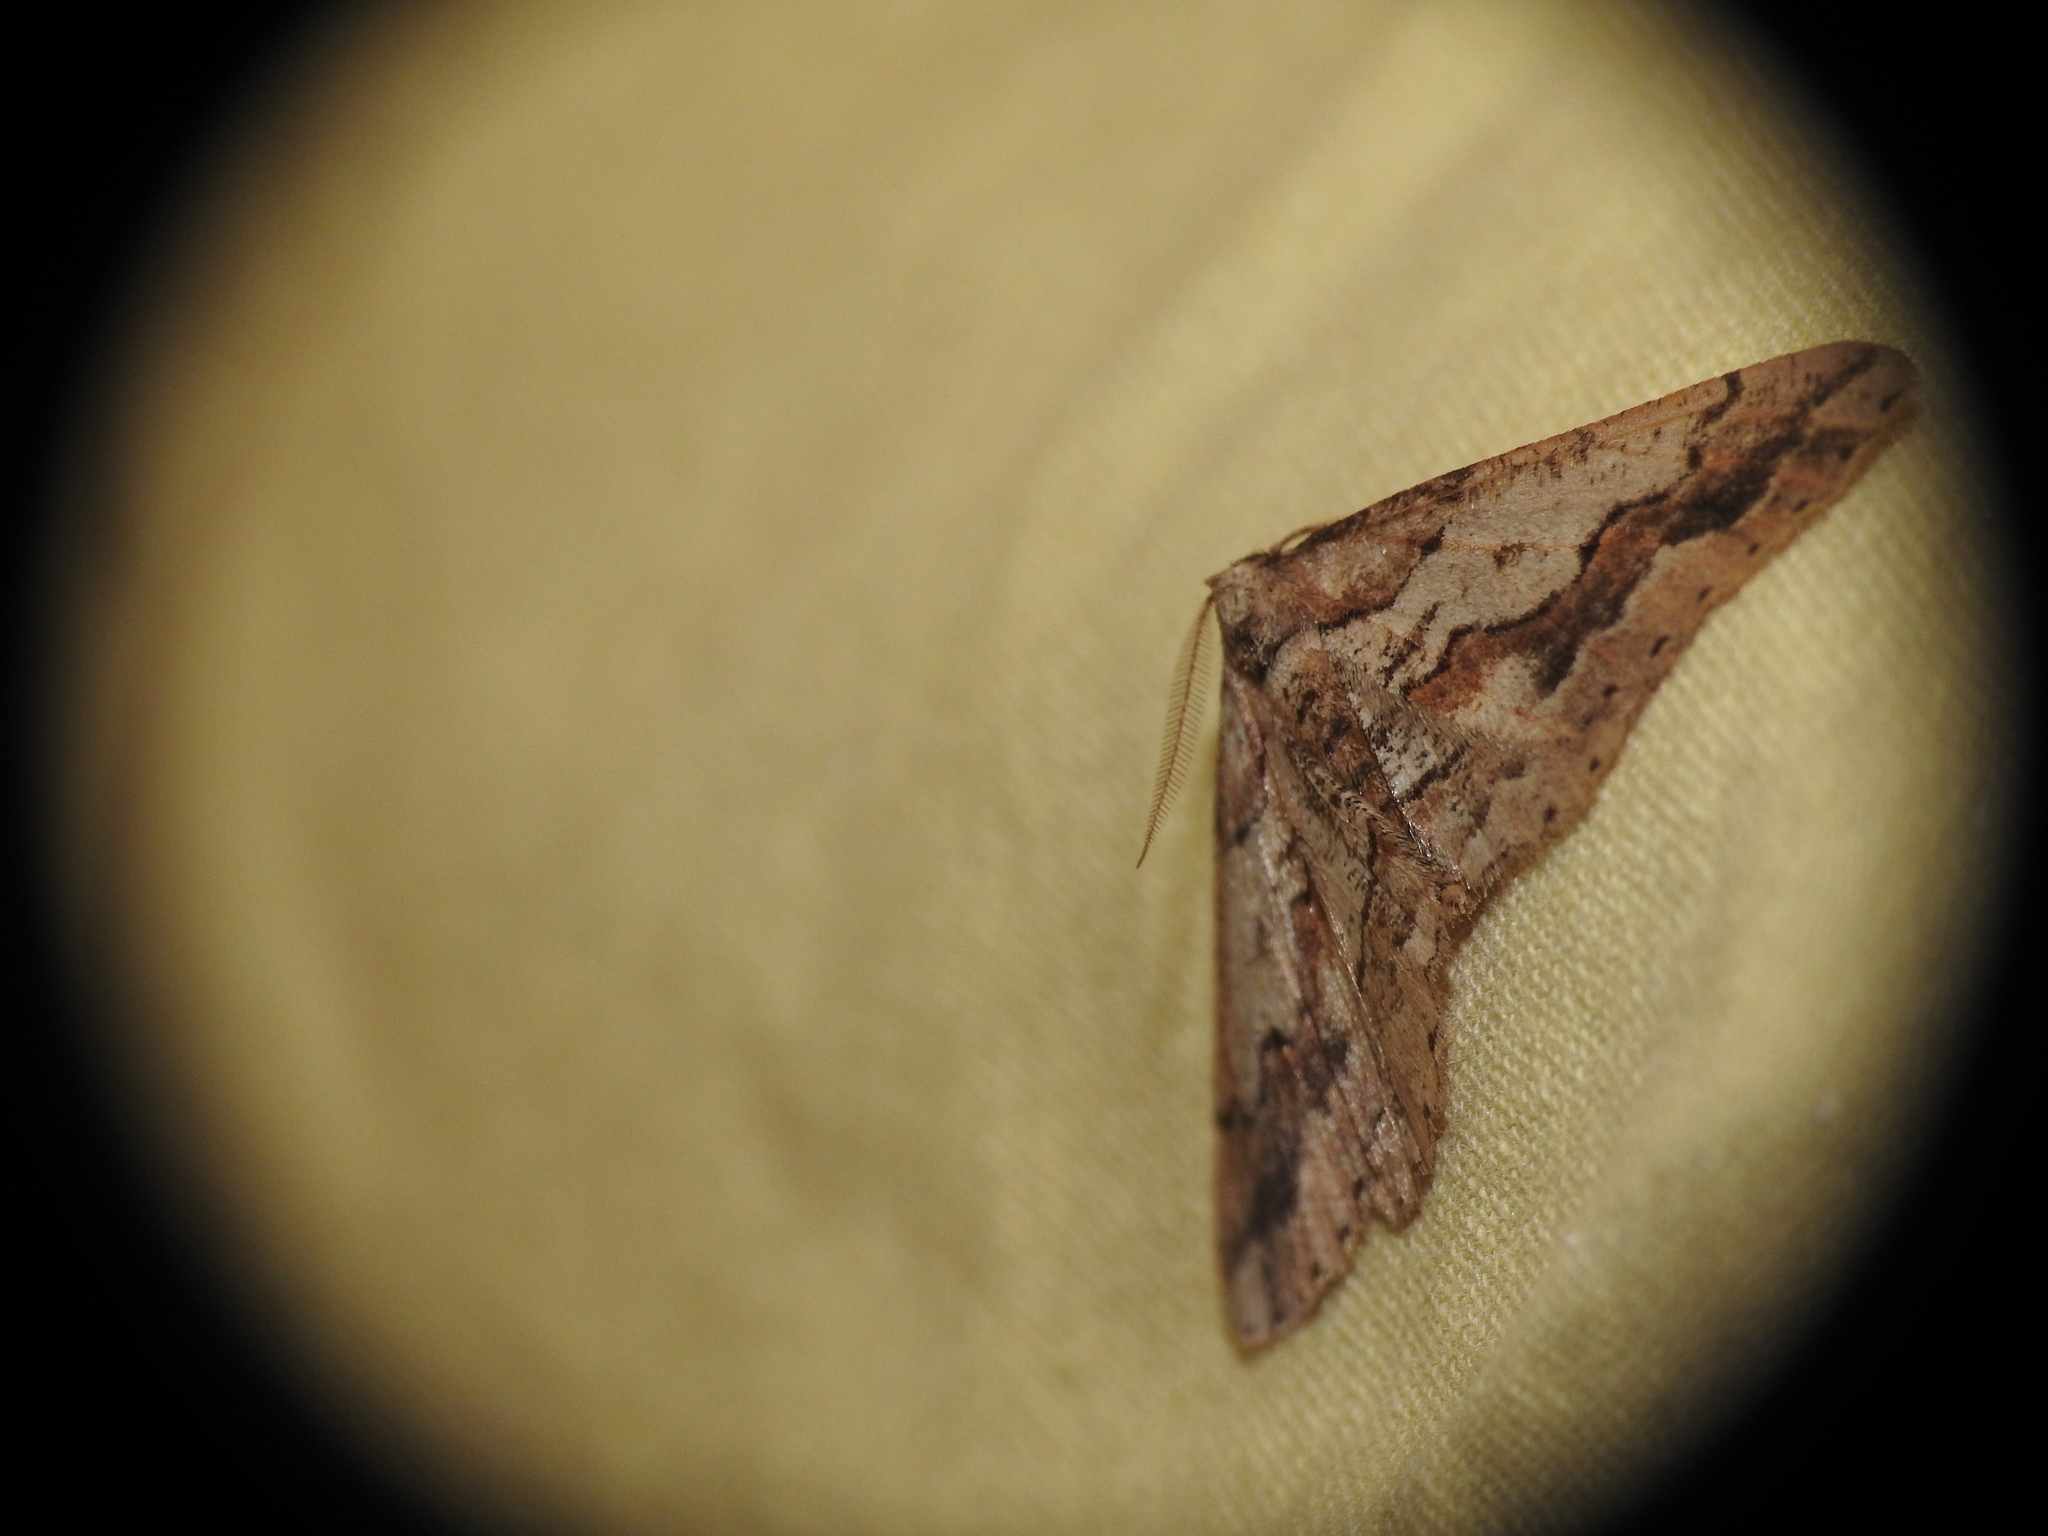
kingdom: Animalia
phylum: Arthropoda
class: Insecta
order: Lepidoptera
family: Geometridae
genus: Agriopis
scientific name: Agriopis bajaria
